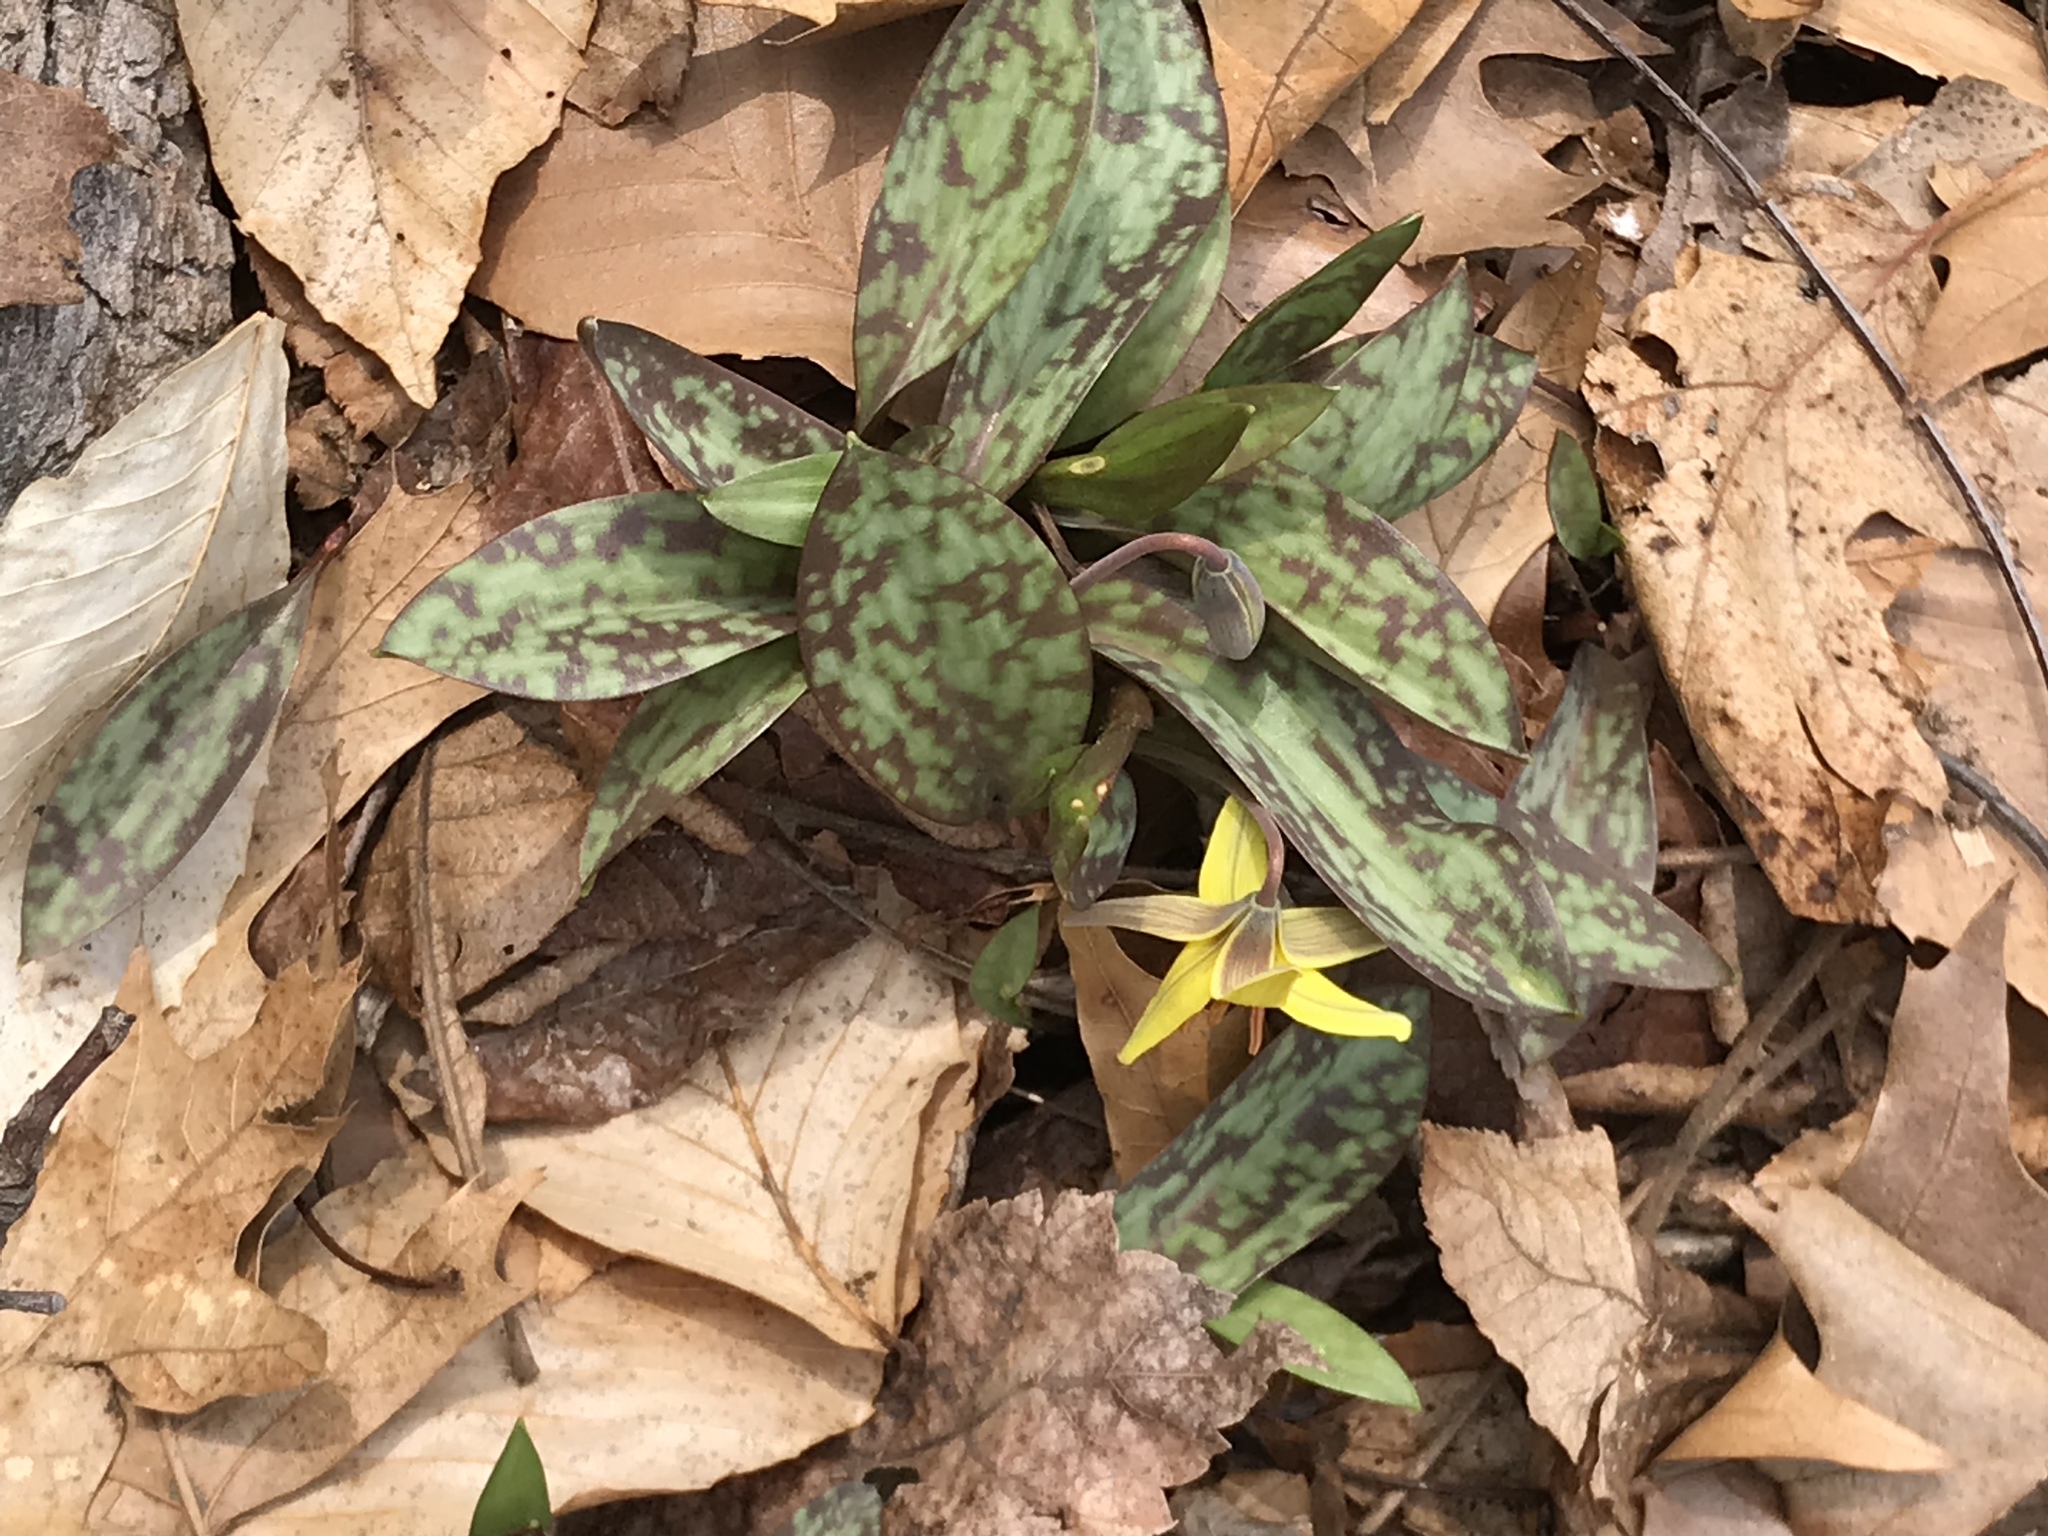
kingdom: Plantae
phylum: Tracheophyta
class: Liliopsida
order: Liliales
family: Liliaceae
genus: Erythronium
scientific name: Erythronium americanum
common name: Yellow adder's-tongue
